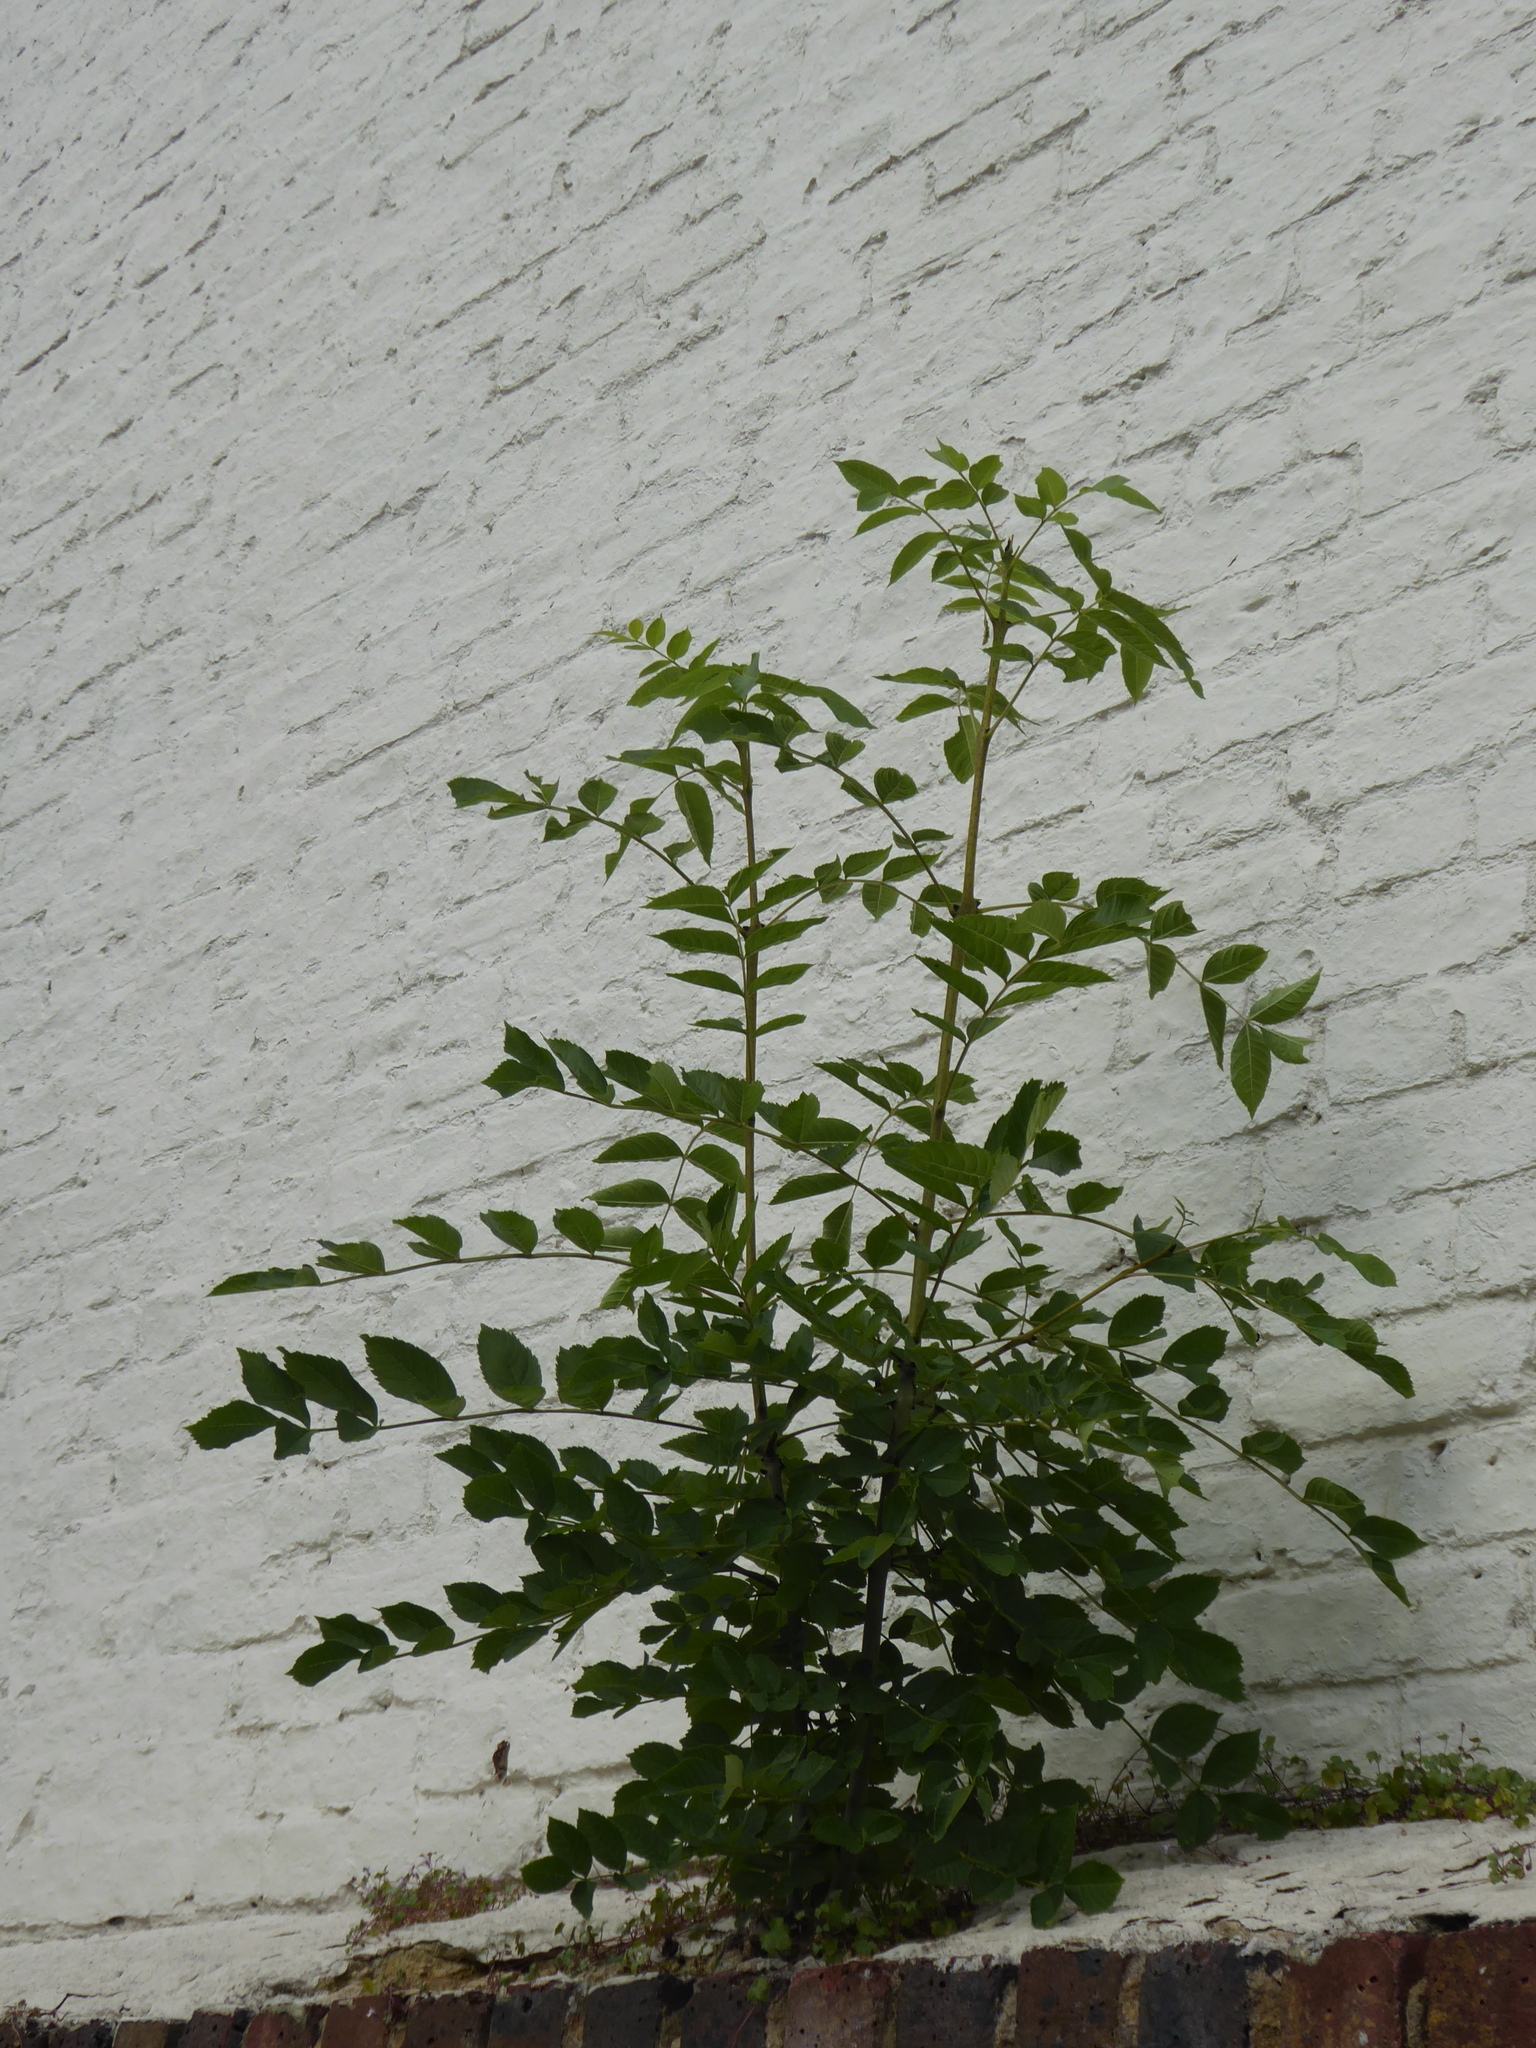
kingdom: Plantae
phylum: Tracheophyta
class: Magnoliopsida
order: Lamiales
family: Oleaceae
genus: Fraxinus
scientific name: Fraxinus excelsior
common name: European ash
